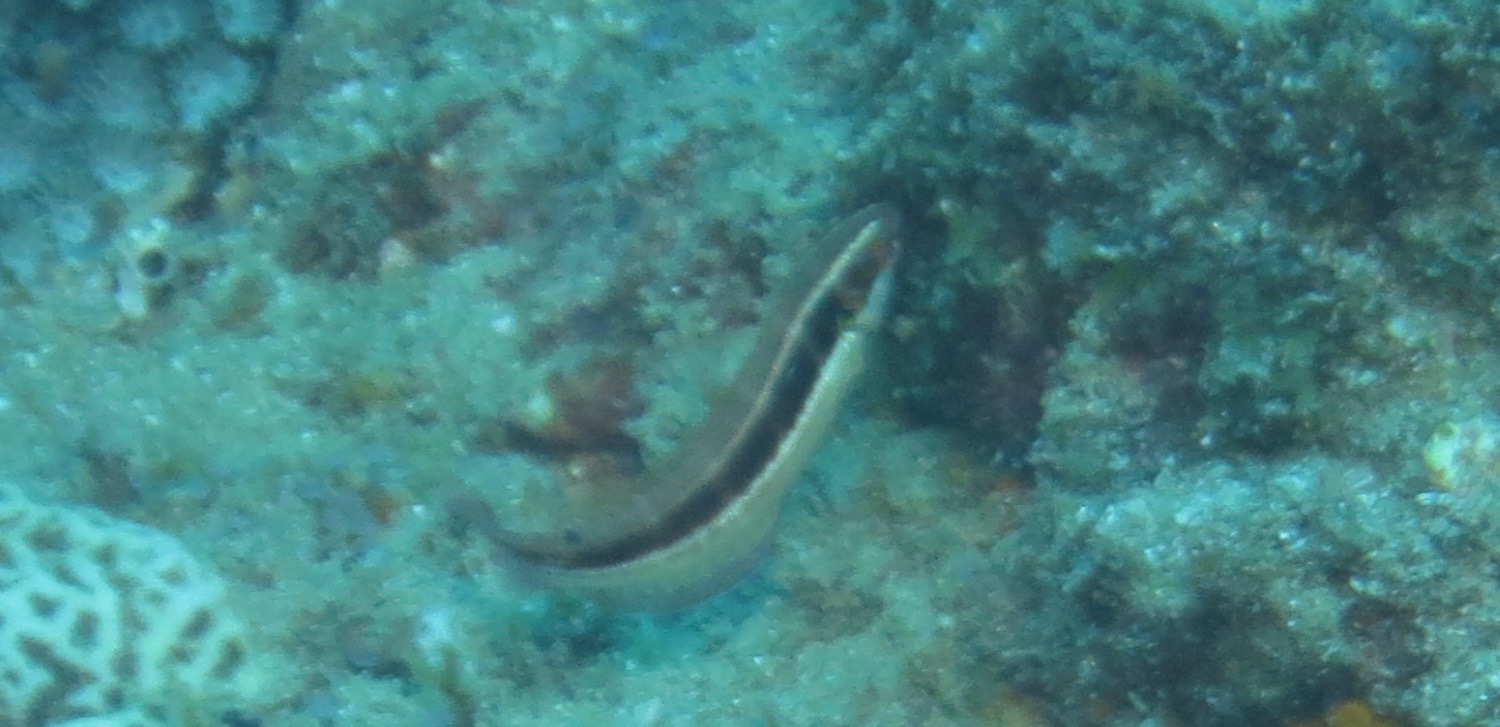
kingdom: Animalia
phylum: Chordata
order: Perciformes
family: Labridae
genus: Coris
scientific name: Coris caudimacula
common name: Spottail coris
